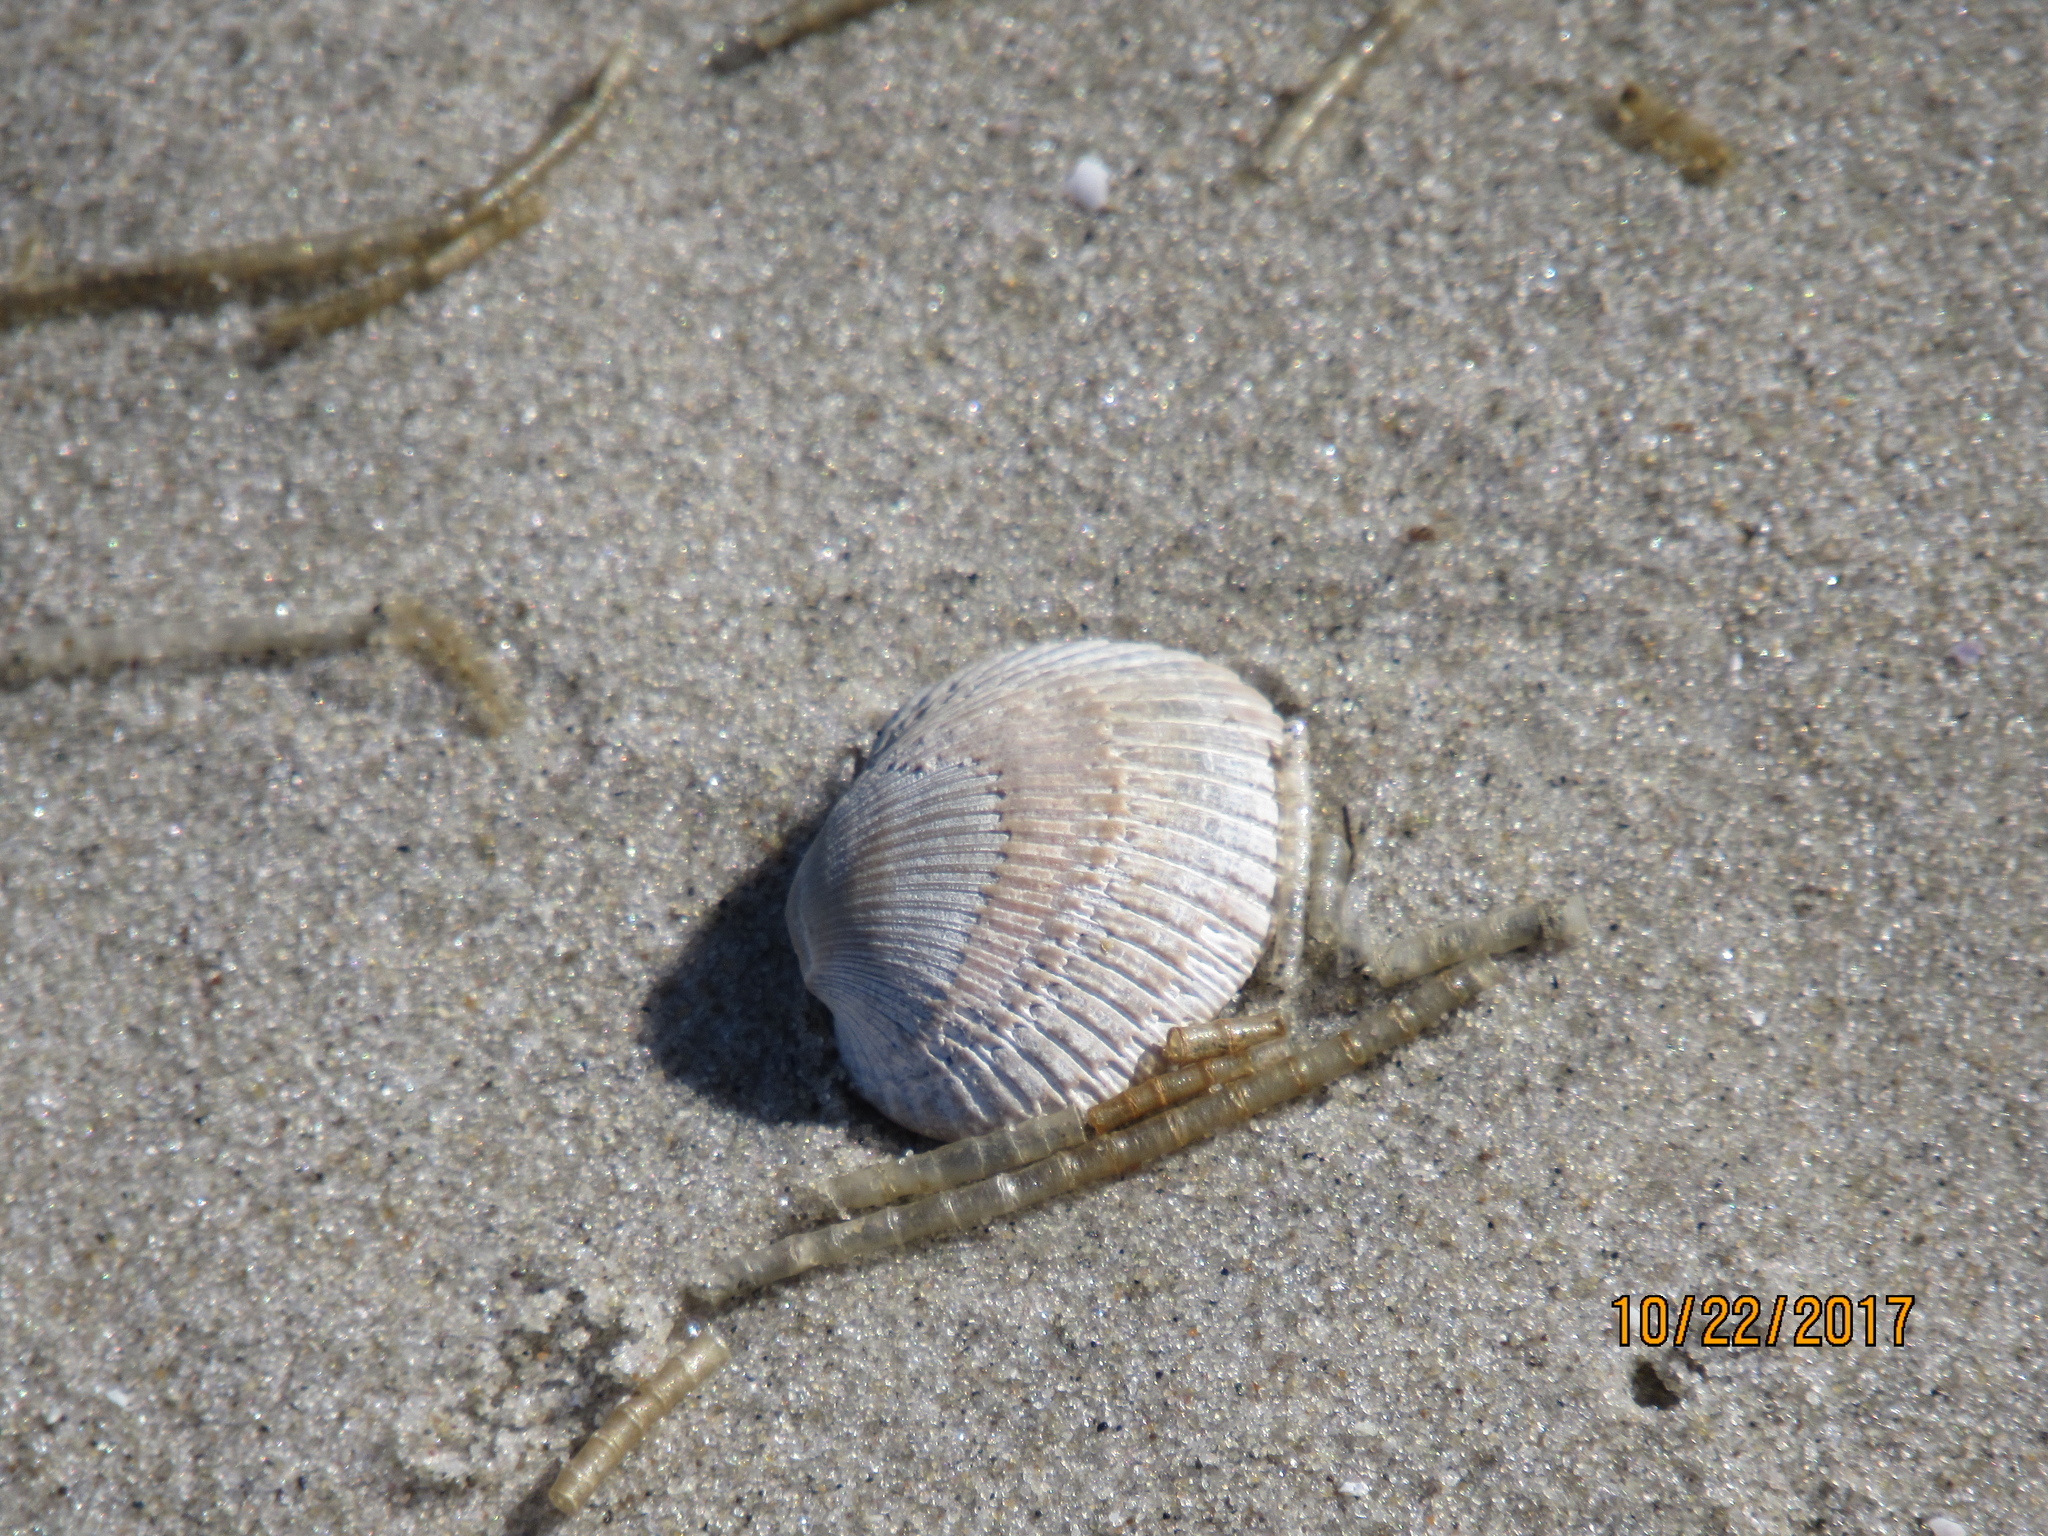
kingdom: Animalia
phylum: Mollusca
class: Bivalvia
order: Arcida
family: Arcidae
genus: Lunarca
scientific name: Lunarca ovalis
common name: Blood ark
